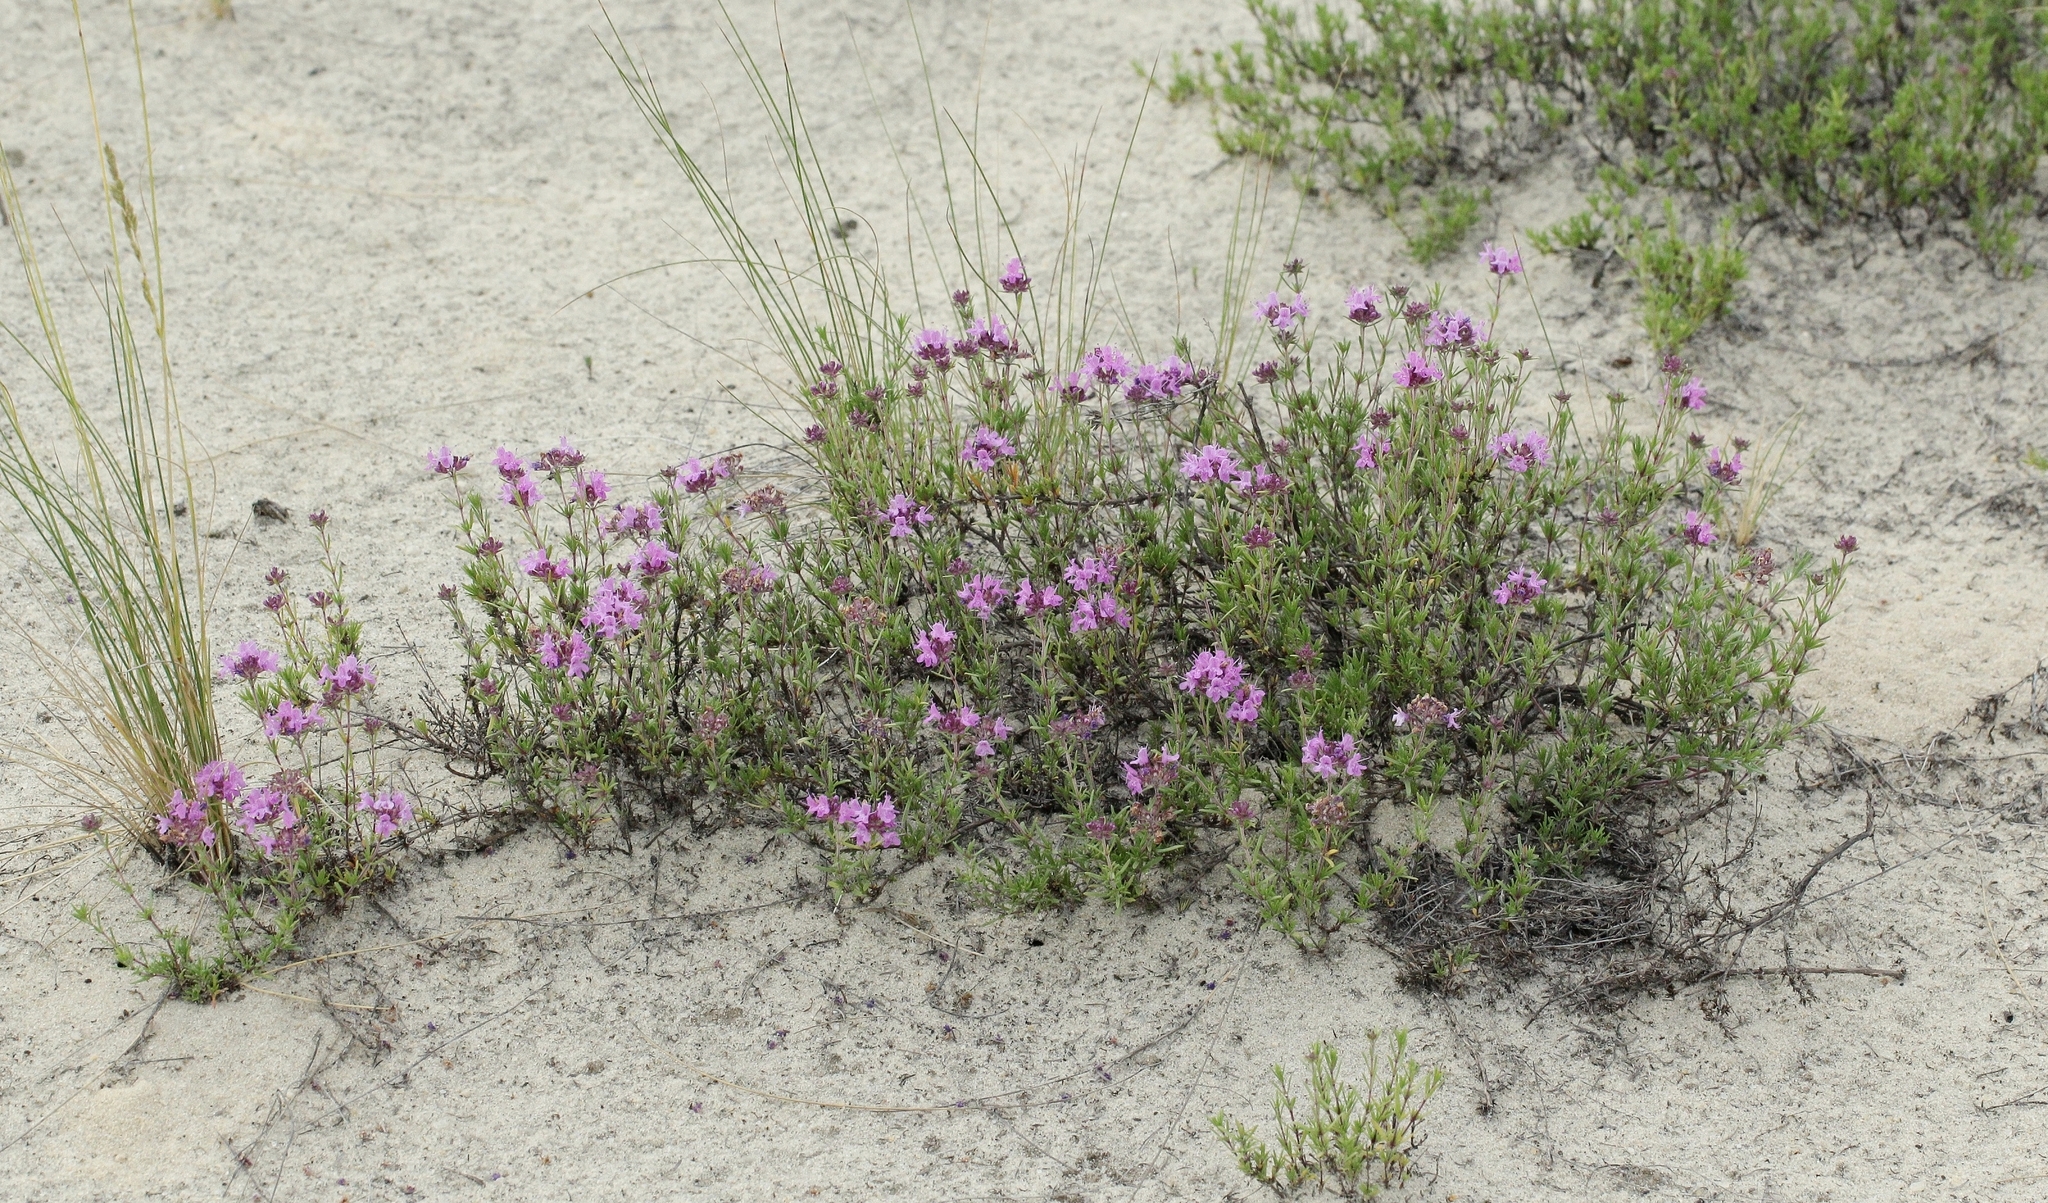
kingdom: Plantae
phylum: Tracheophyta
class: Magnoliopsida
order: Lamiales
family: Lamiaceae
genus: Thymus
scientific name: Thymus pallasianus
